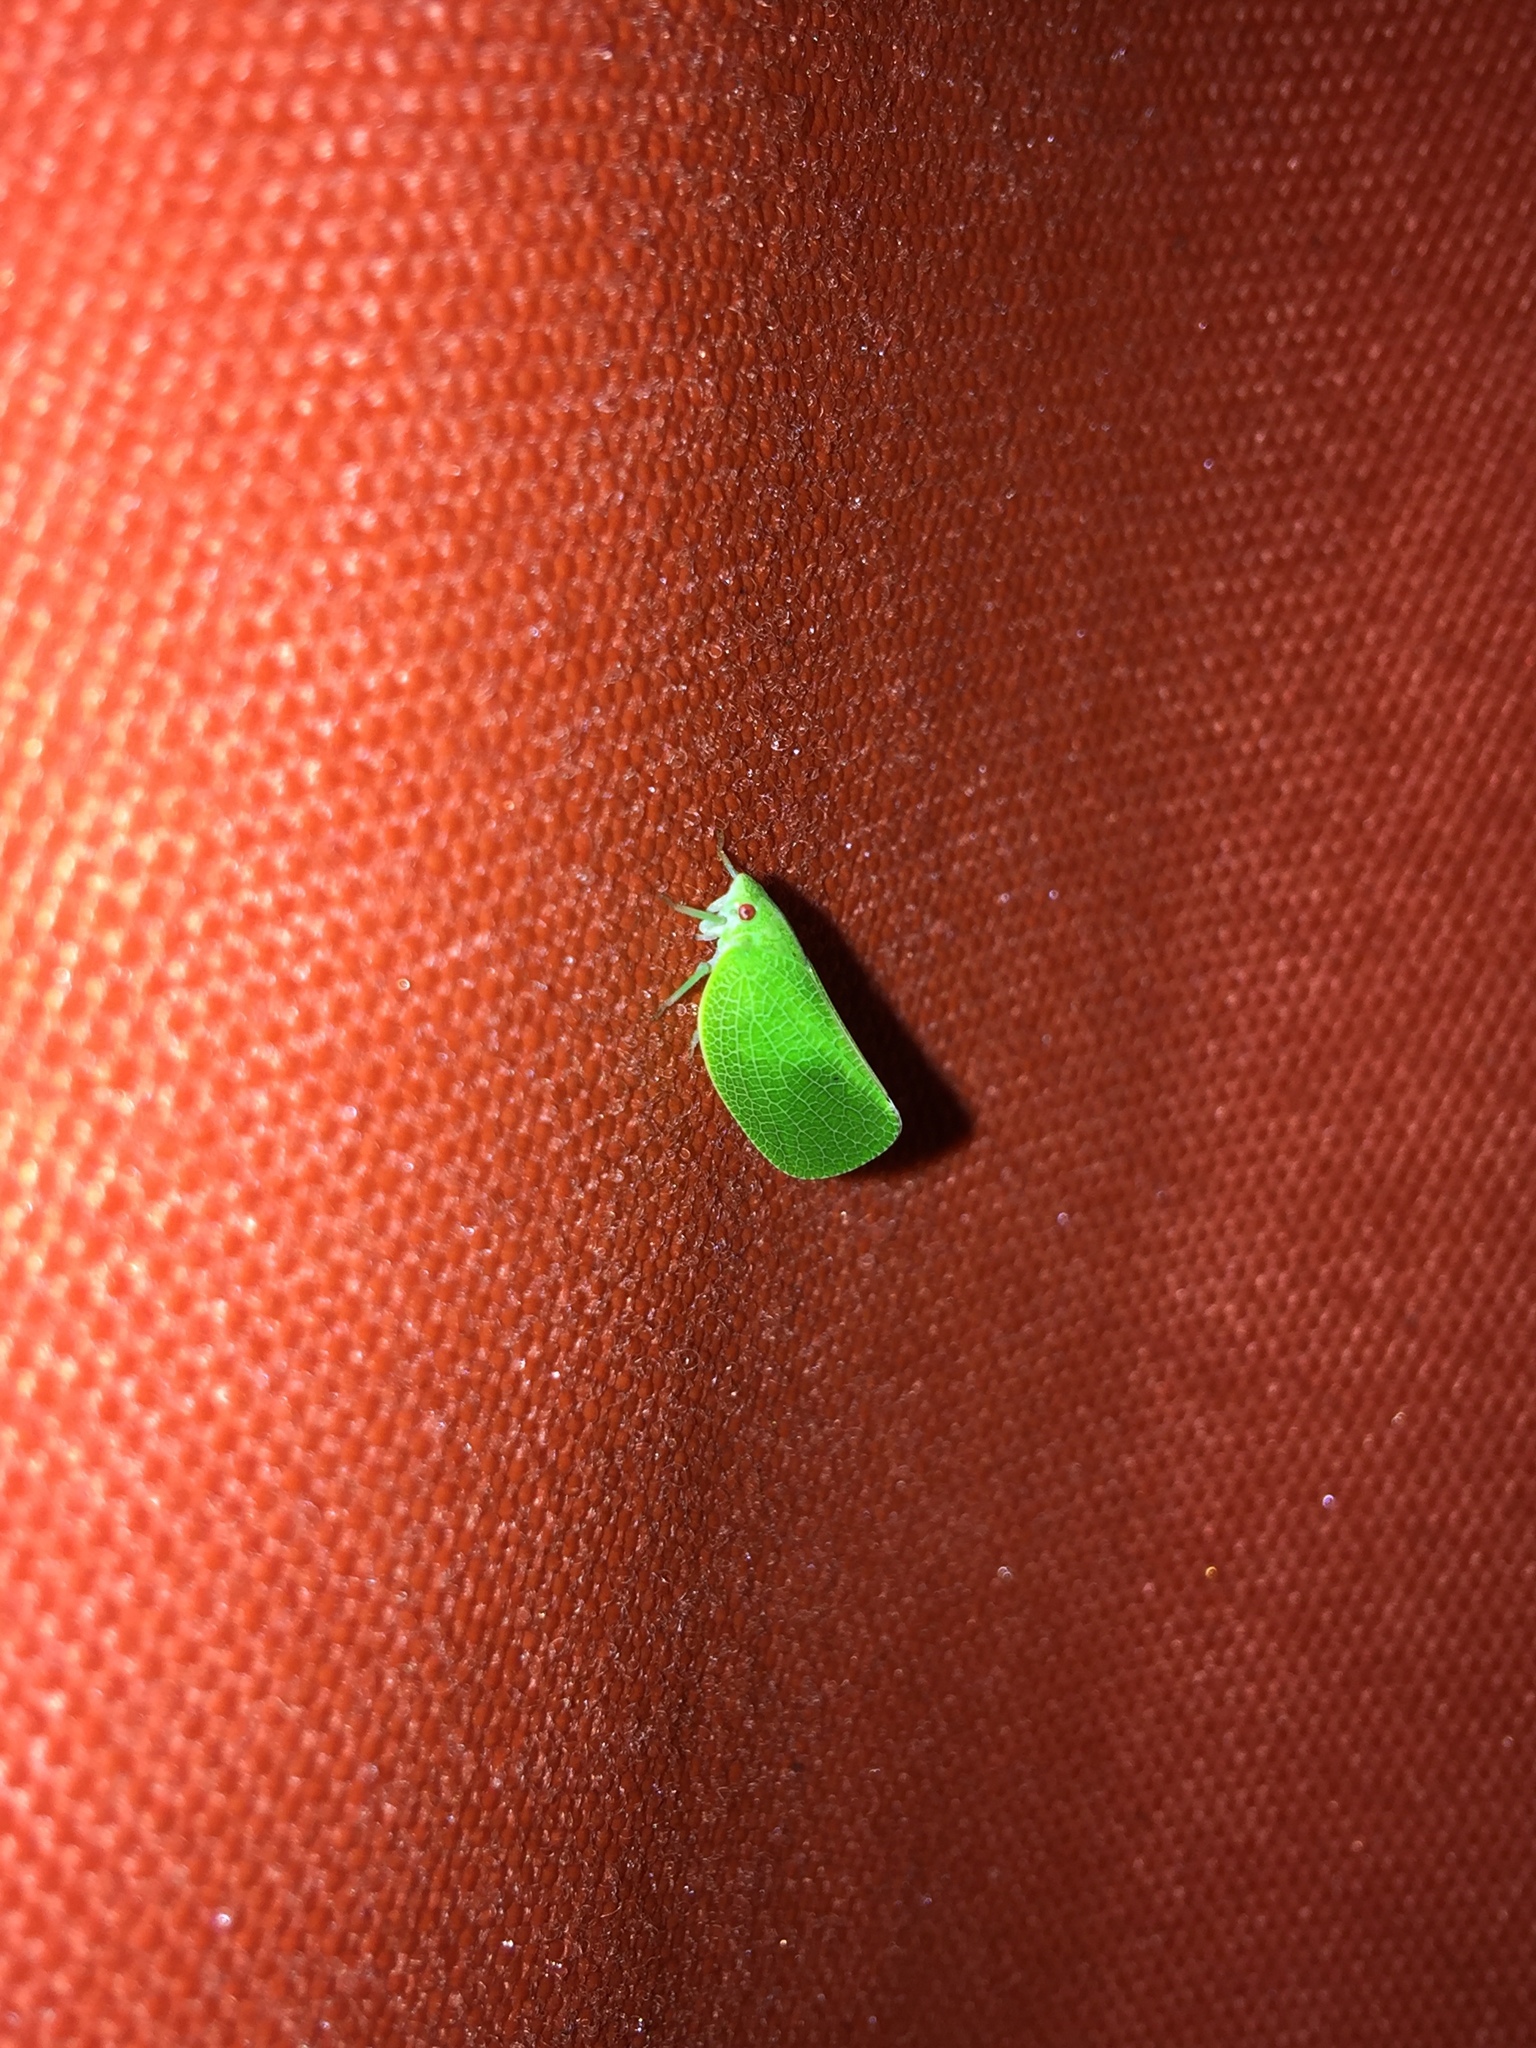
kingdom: Animalia
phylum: Arthropoda
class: Insecta
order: Hemiptera
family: Acanaloniidae
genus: Acanalonia
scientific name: Acanalonia conica
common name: Green cone-headed planthopper
